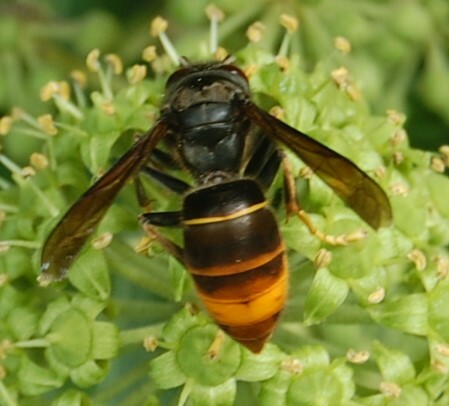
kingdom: Animalia
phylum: Arthropoda
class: Insecta
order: Hymenoptera
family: Vespidae
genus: Vespa
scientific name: Vespa velutina
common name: Asian hornet
